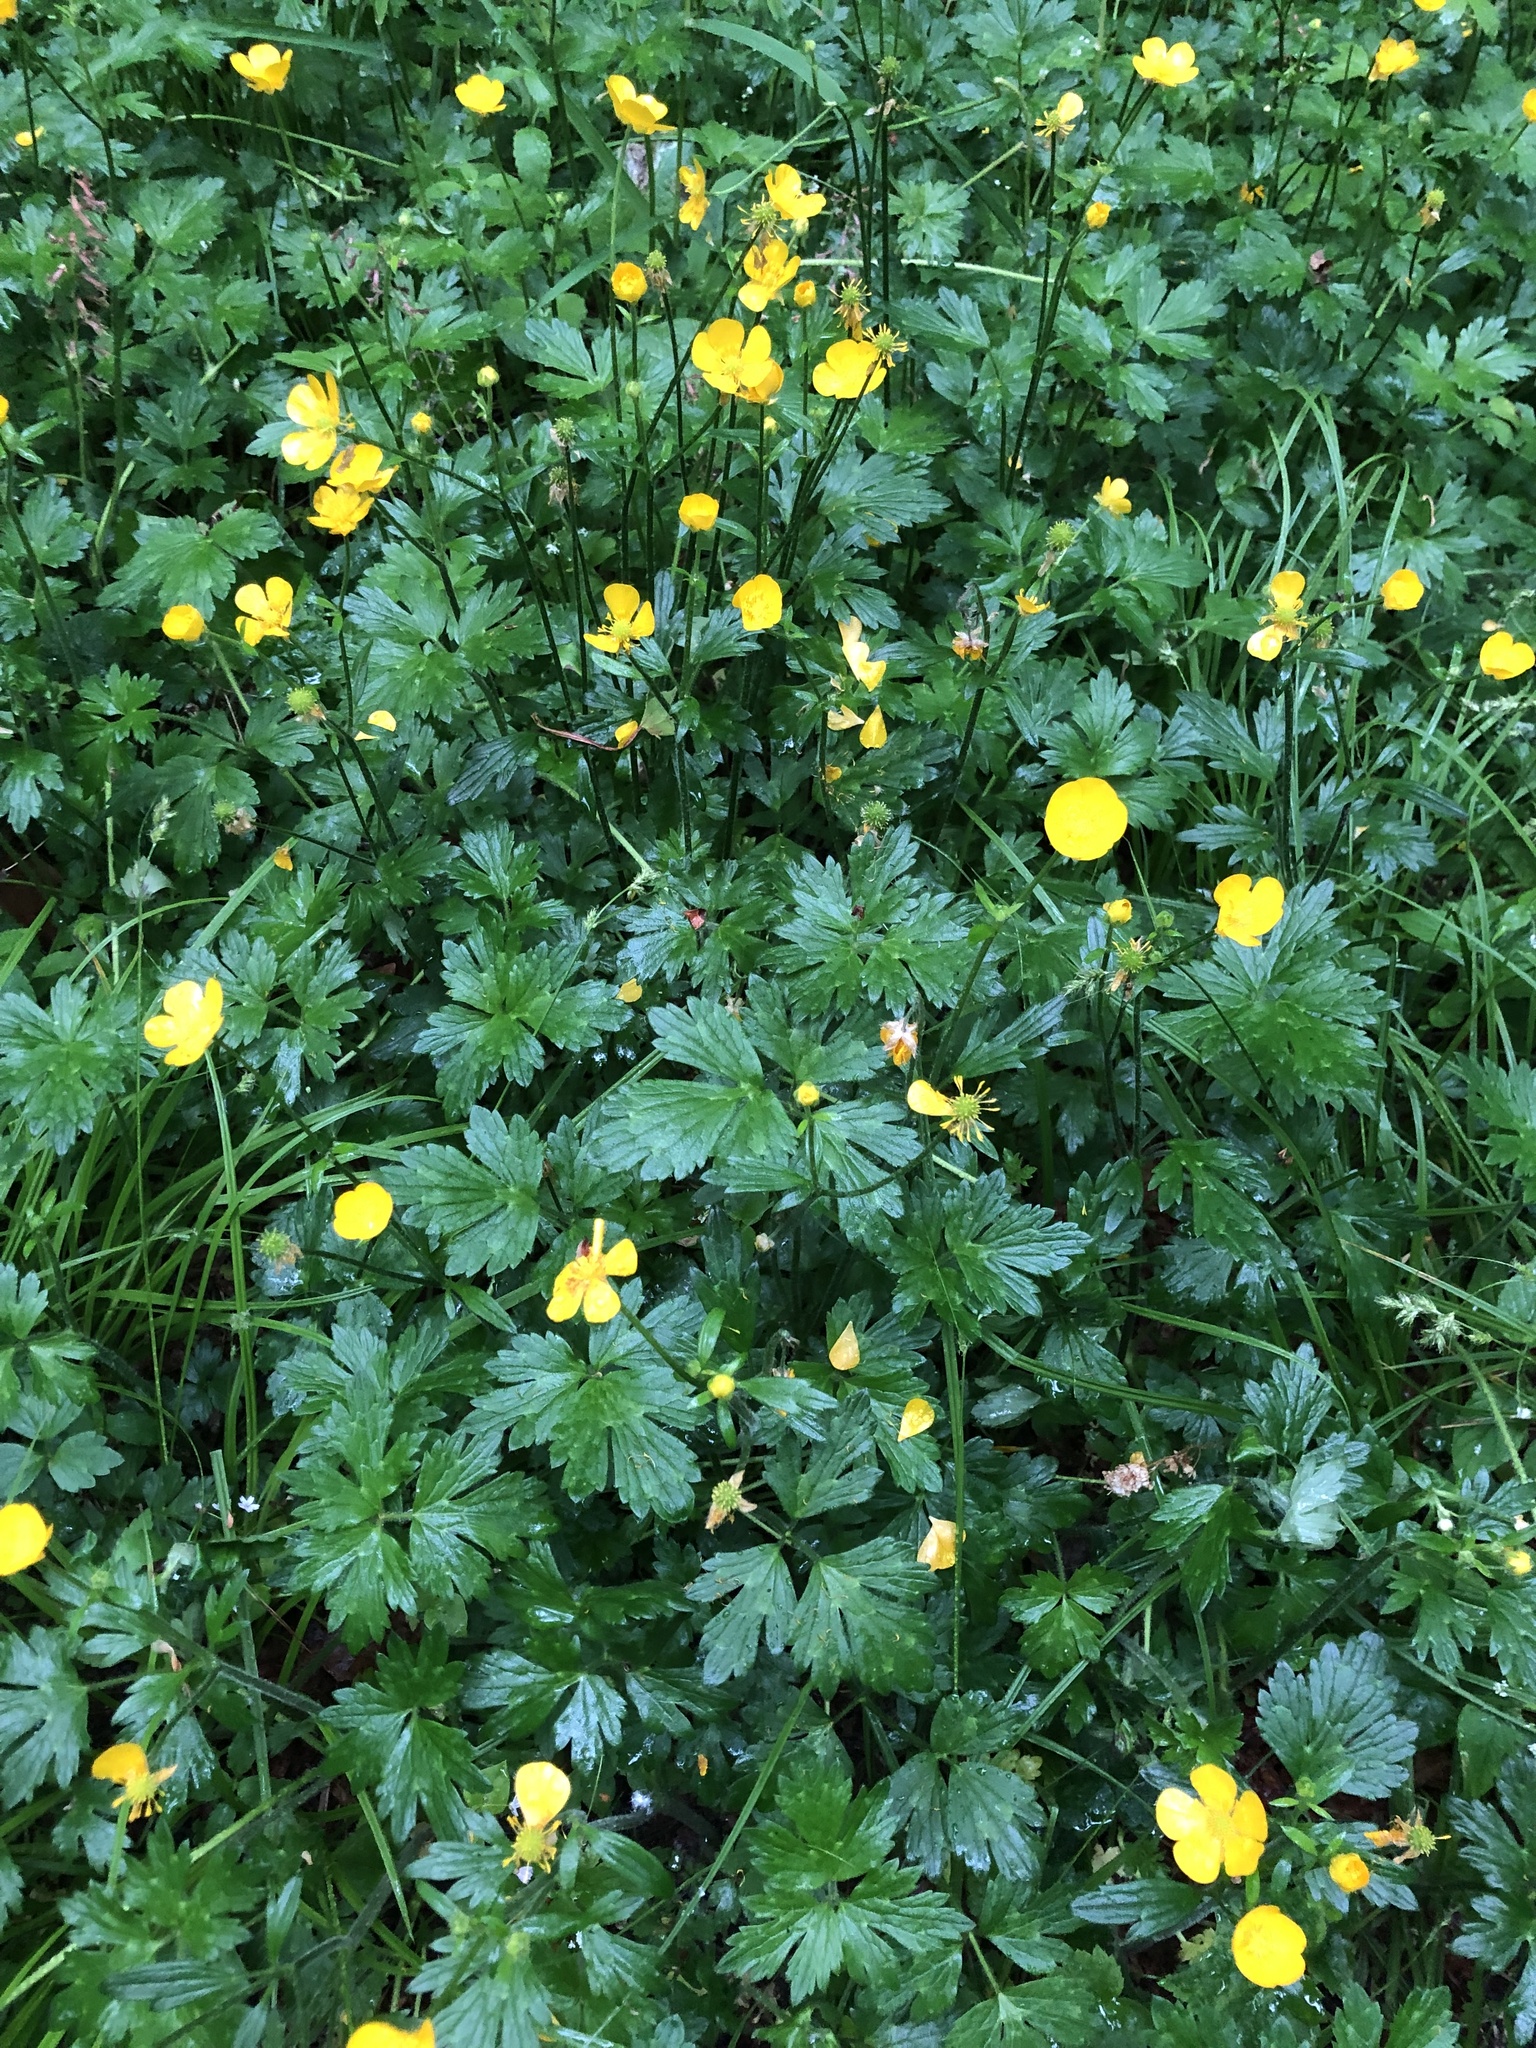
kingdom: Plantae
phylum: Tracheophyta
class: Magnoliopsida
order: Ranunculales
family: Ranunculaceae
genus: Ranunculus
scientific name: Ranunculus repens
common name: Creeping buttercup
